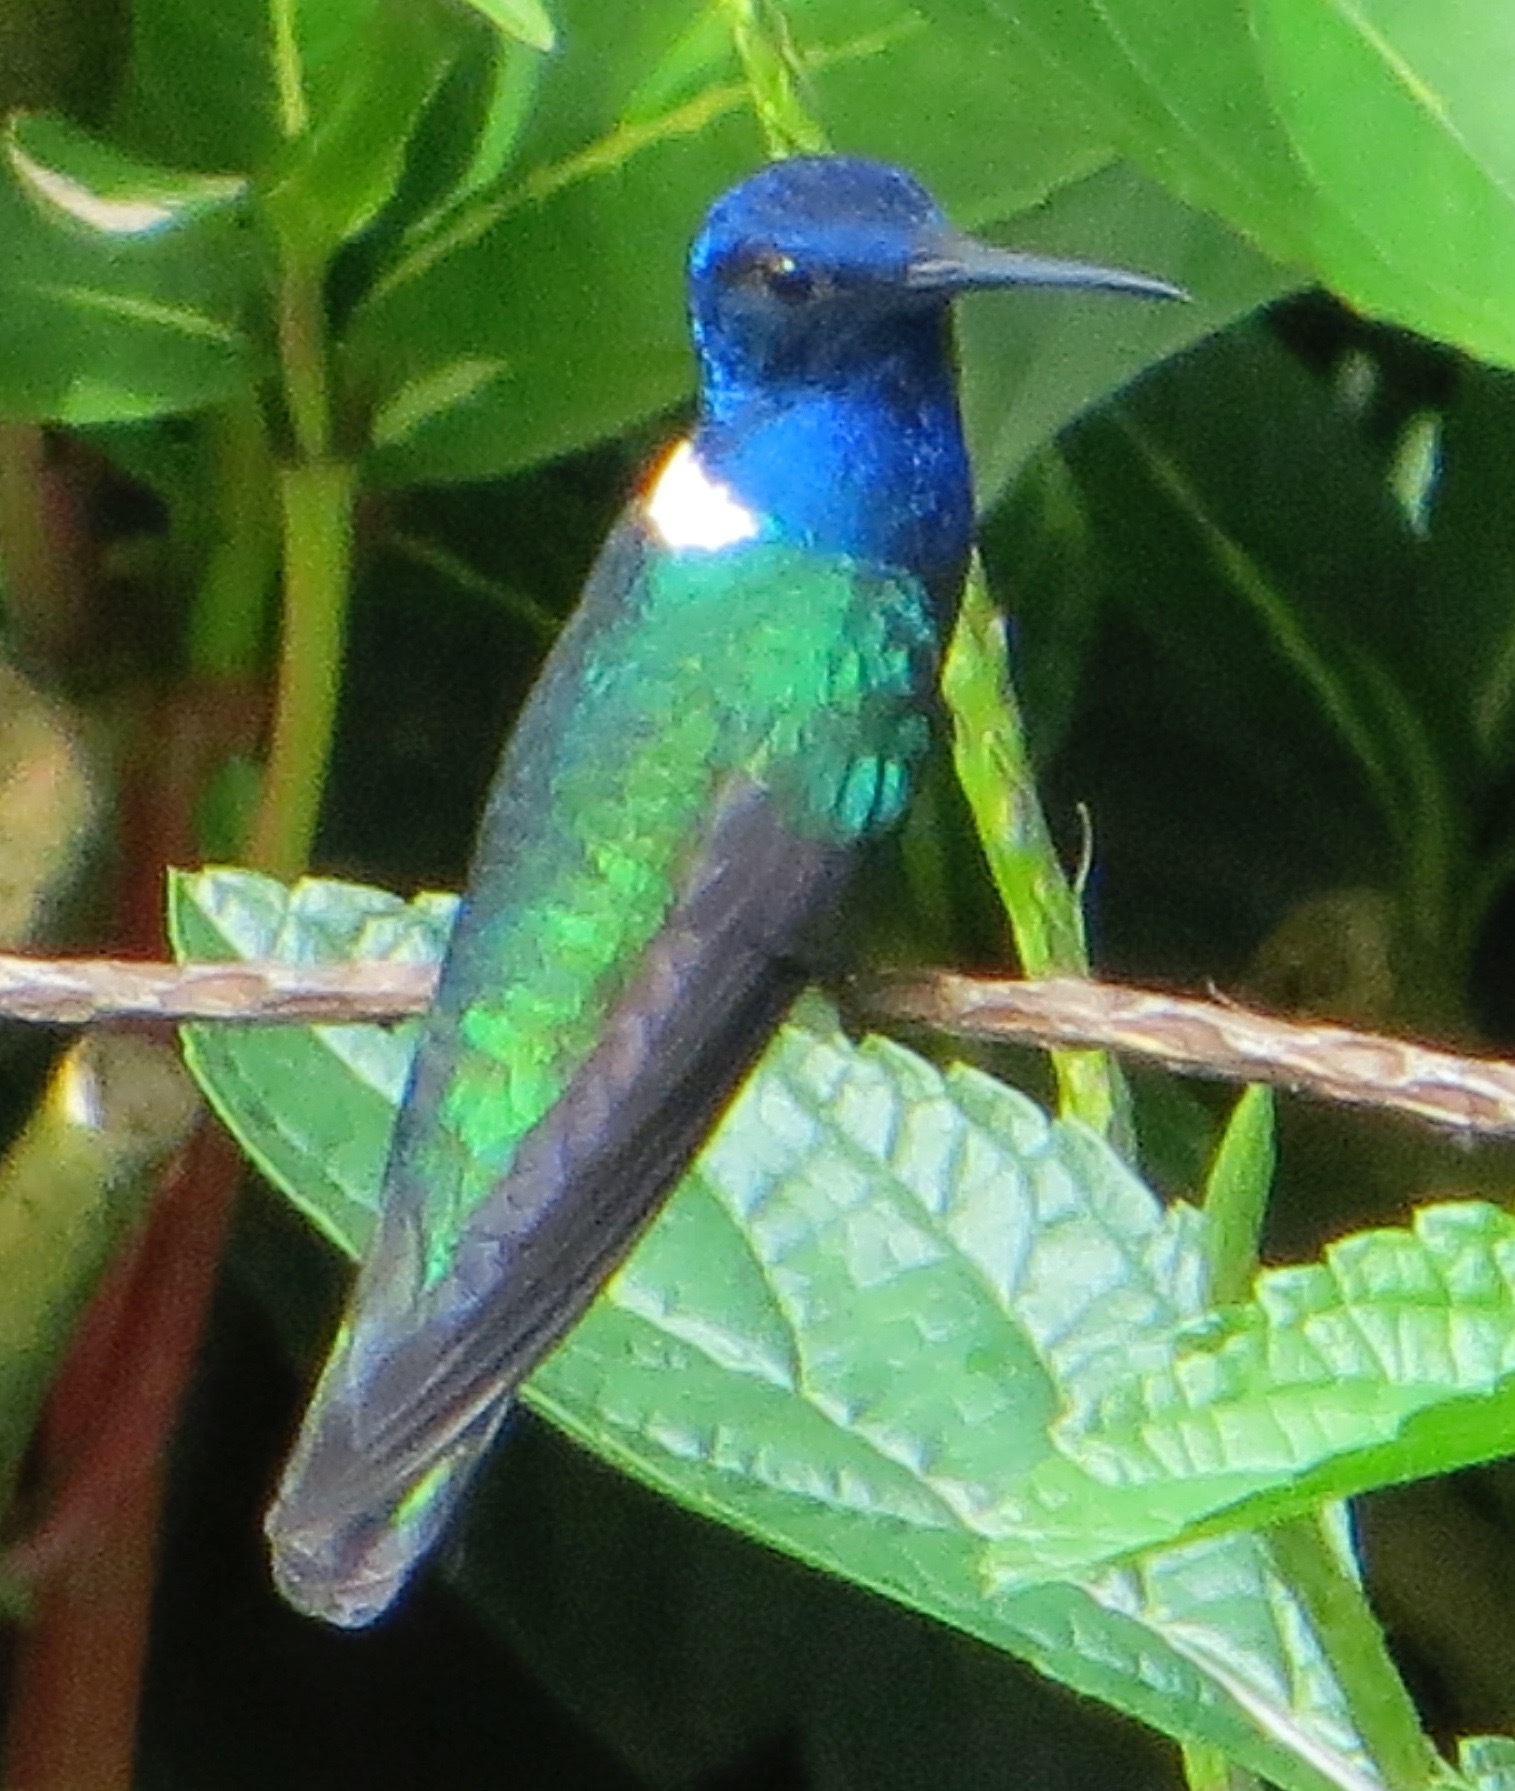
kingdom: Animalia
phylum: Chordata
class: Aves
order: Apodiformes
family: Trochilidae
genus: Florisuga
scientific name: Florisuga mellivora
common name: White-necked jacobin
